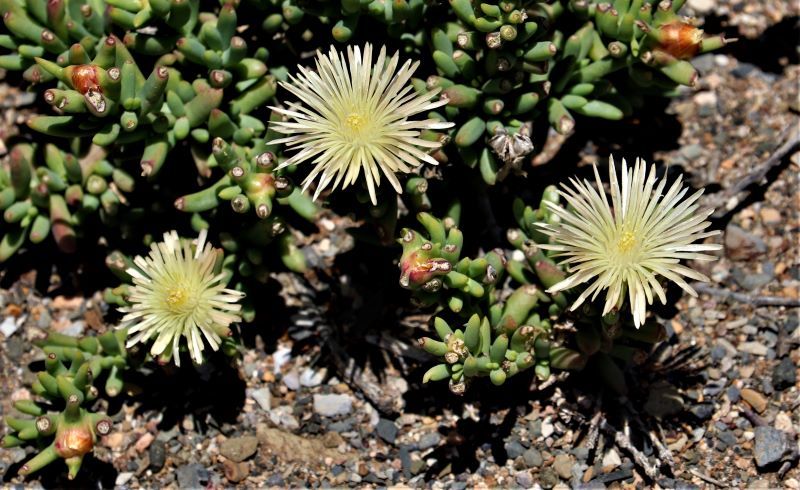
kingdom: Plantae
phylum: Tracheophyta
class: Magnoliopsida
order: Caryophyllales
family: Aizoaceae
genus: Mesembryanthemum
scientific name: Mesembryanthemum splendens
